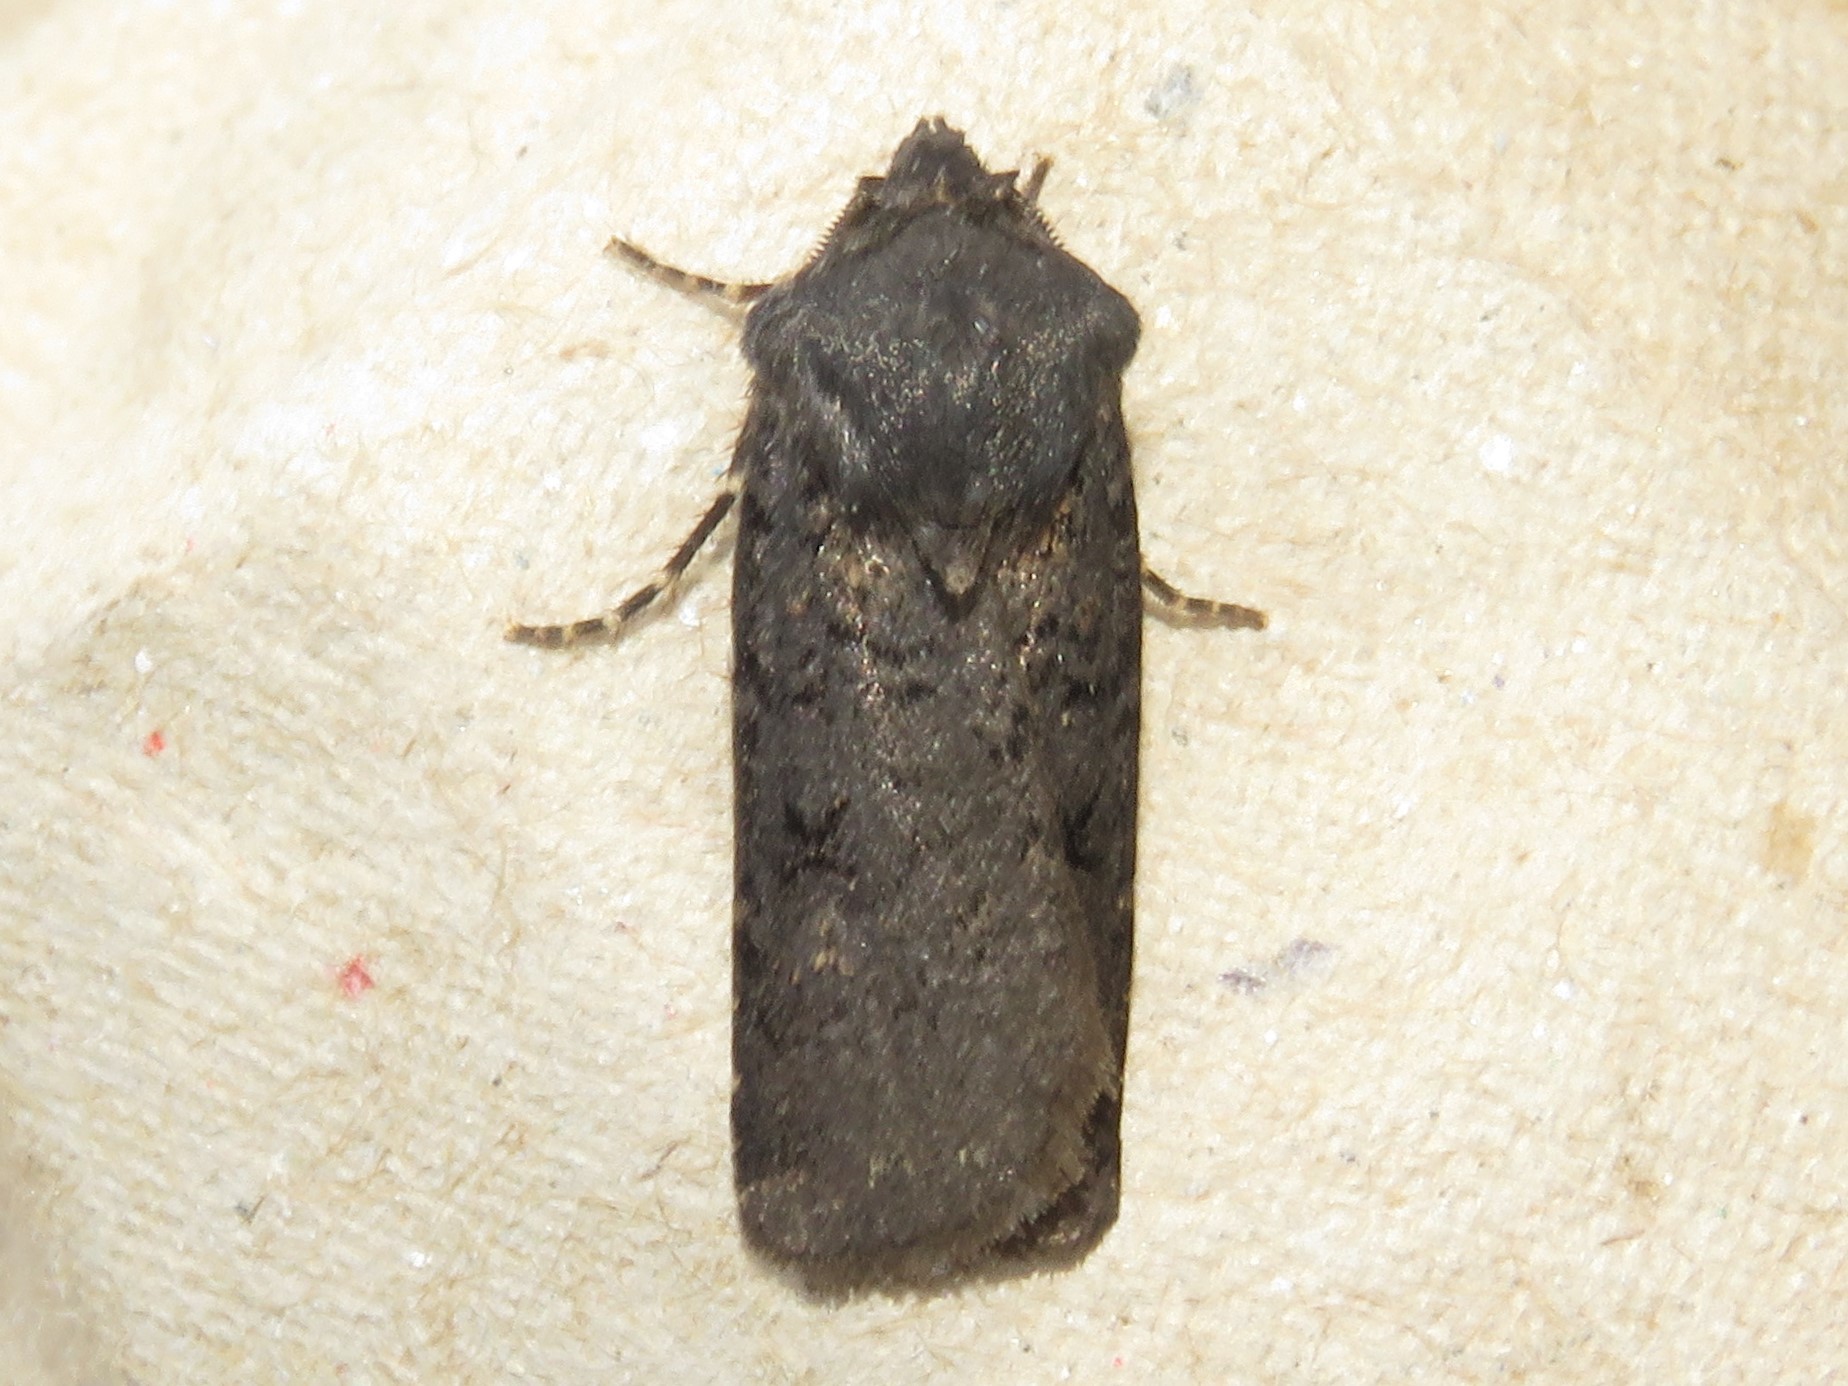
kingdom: Animalia
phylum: Arthropoda
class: Insecta
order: Lepidoptera
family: Noctuidae
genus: Euxoa
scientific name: Euxoa velleripennis
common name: Fleece-winged dart
